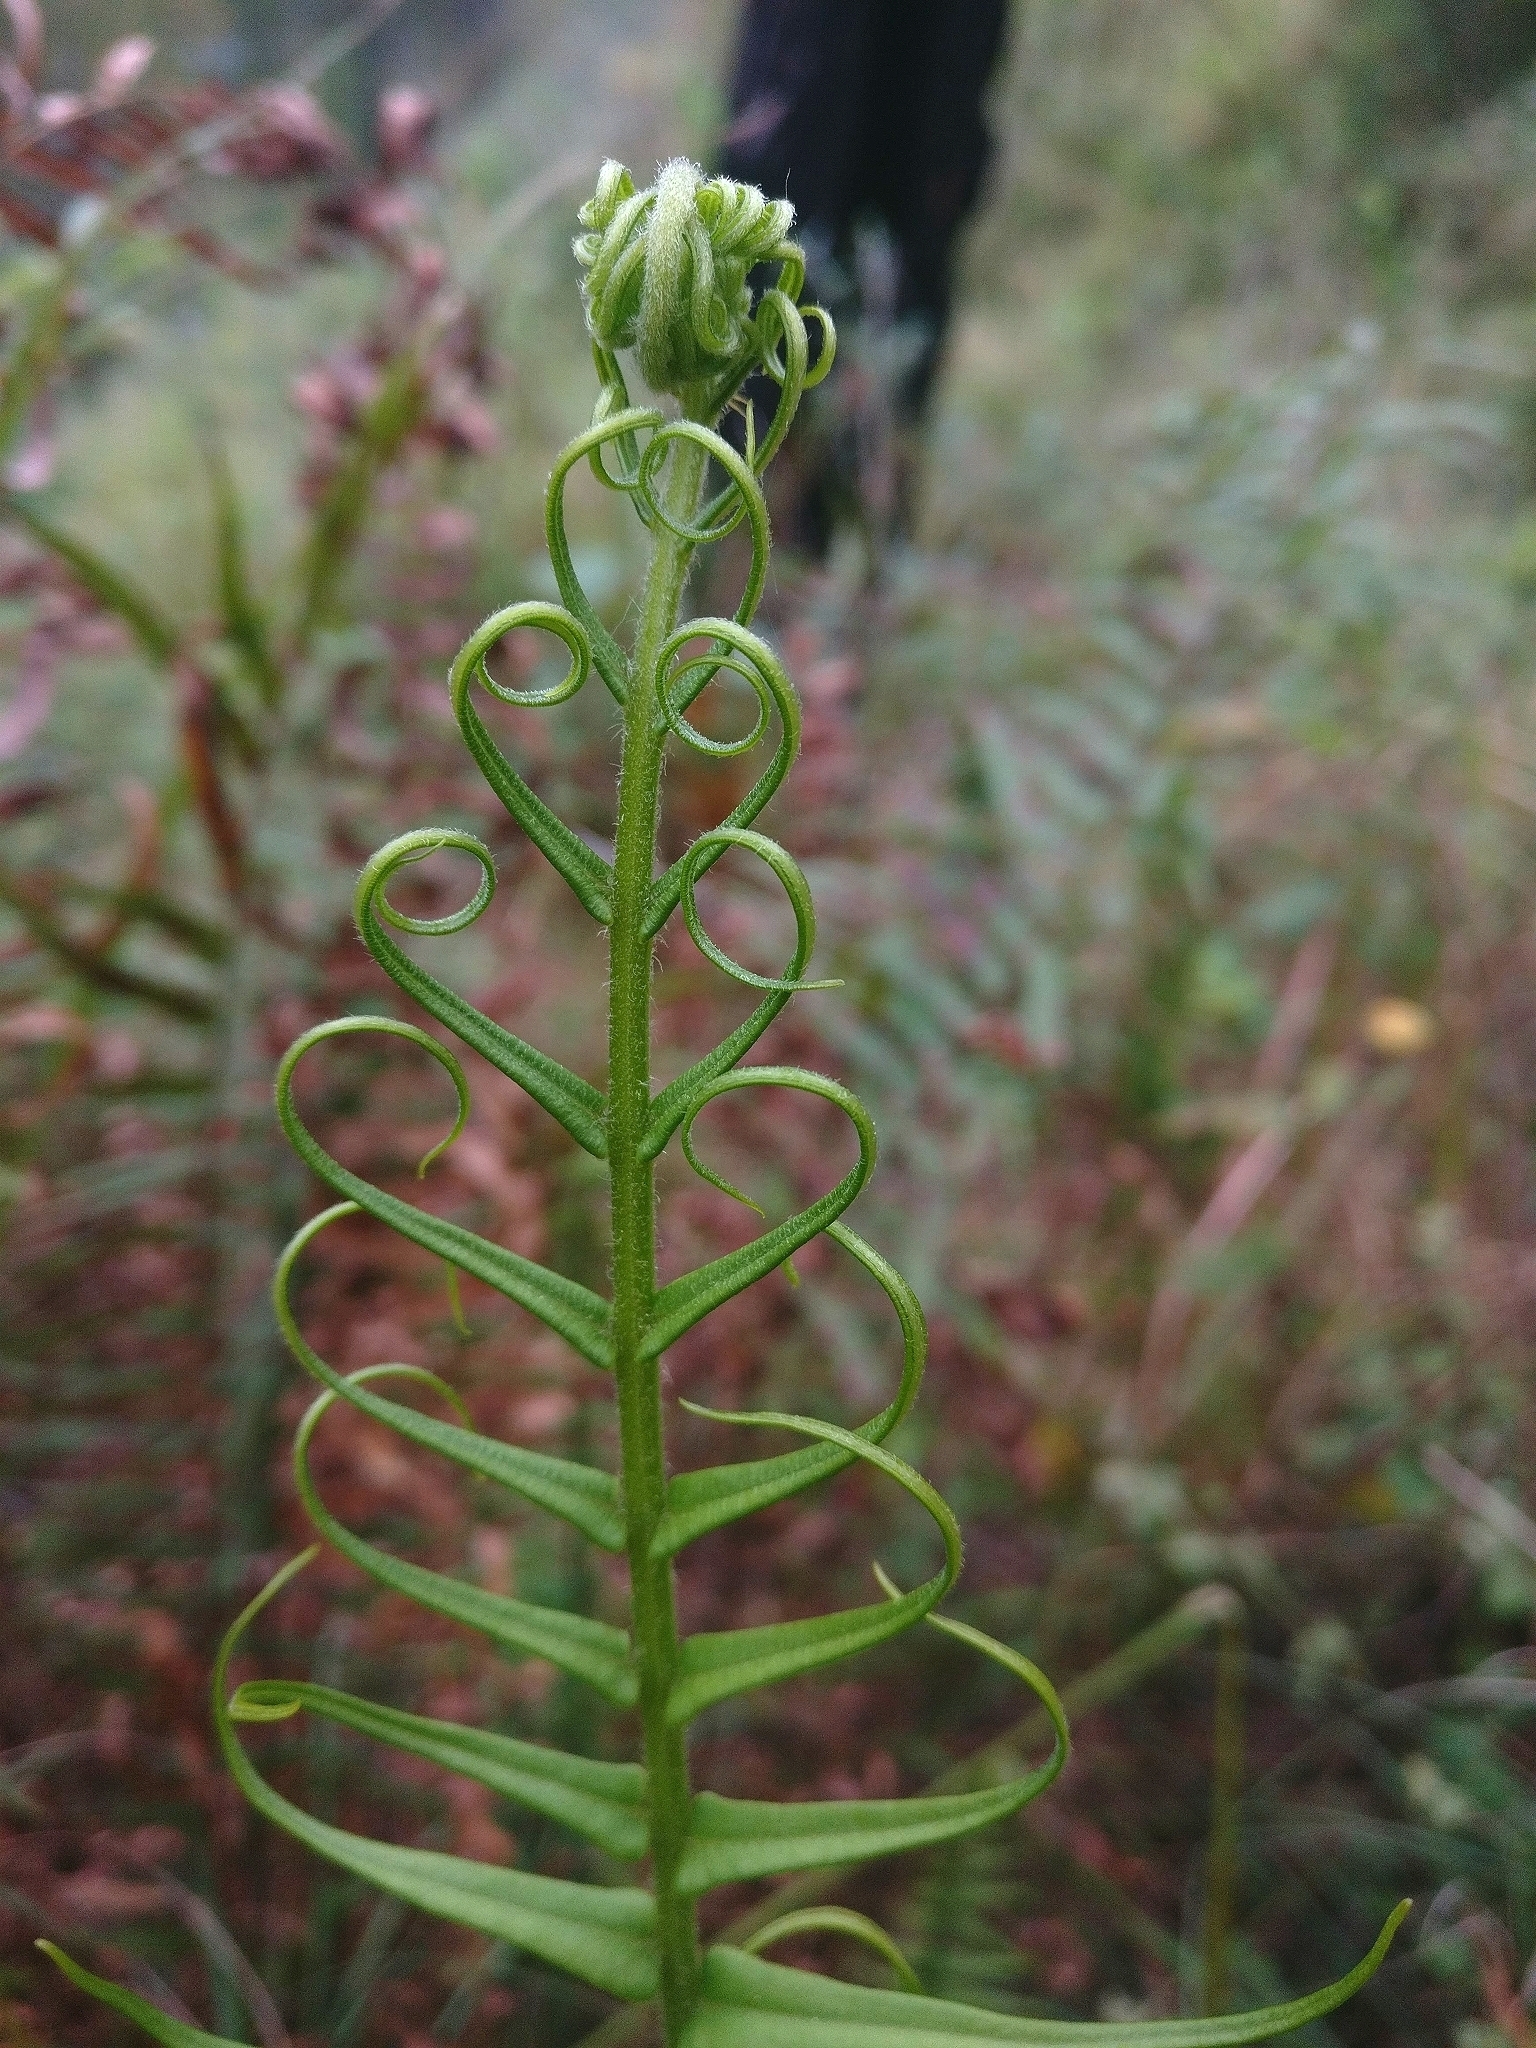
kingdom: Plantae
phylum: Tracheophyta
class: Polypodiopsida
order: Polypodiales
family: Pteridaceae
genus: Pteris
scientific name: Pteris vittata
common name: Ladder brake
